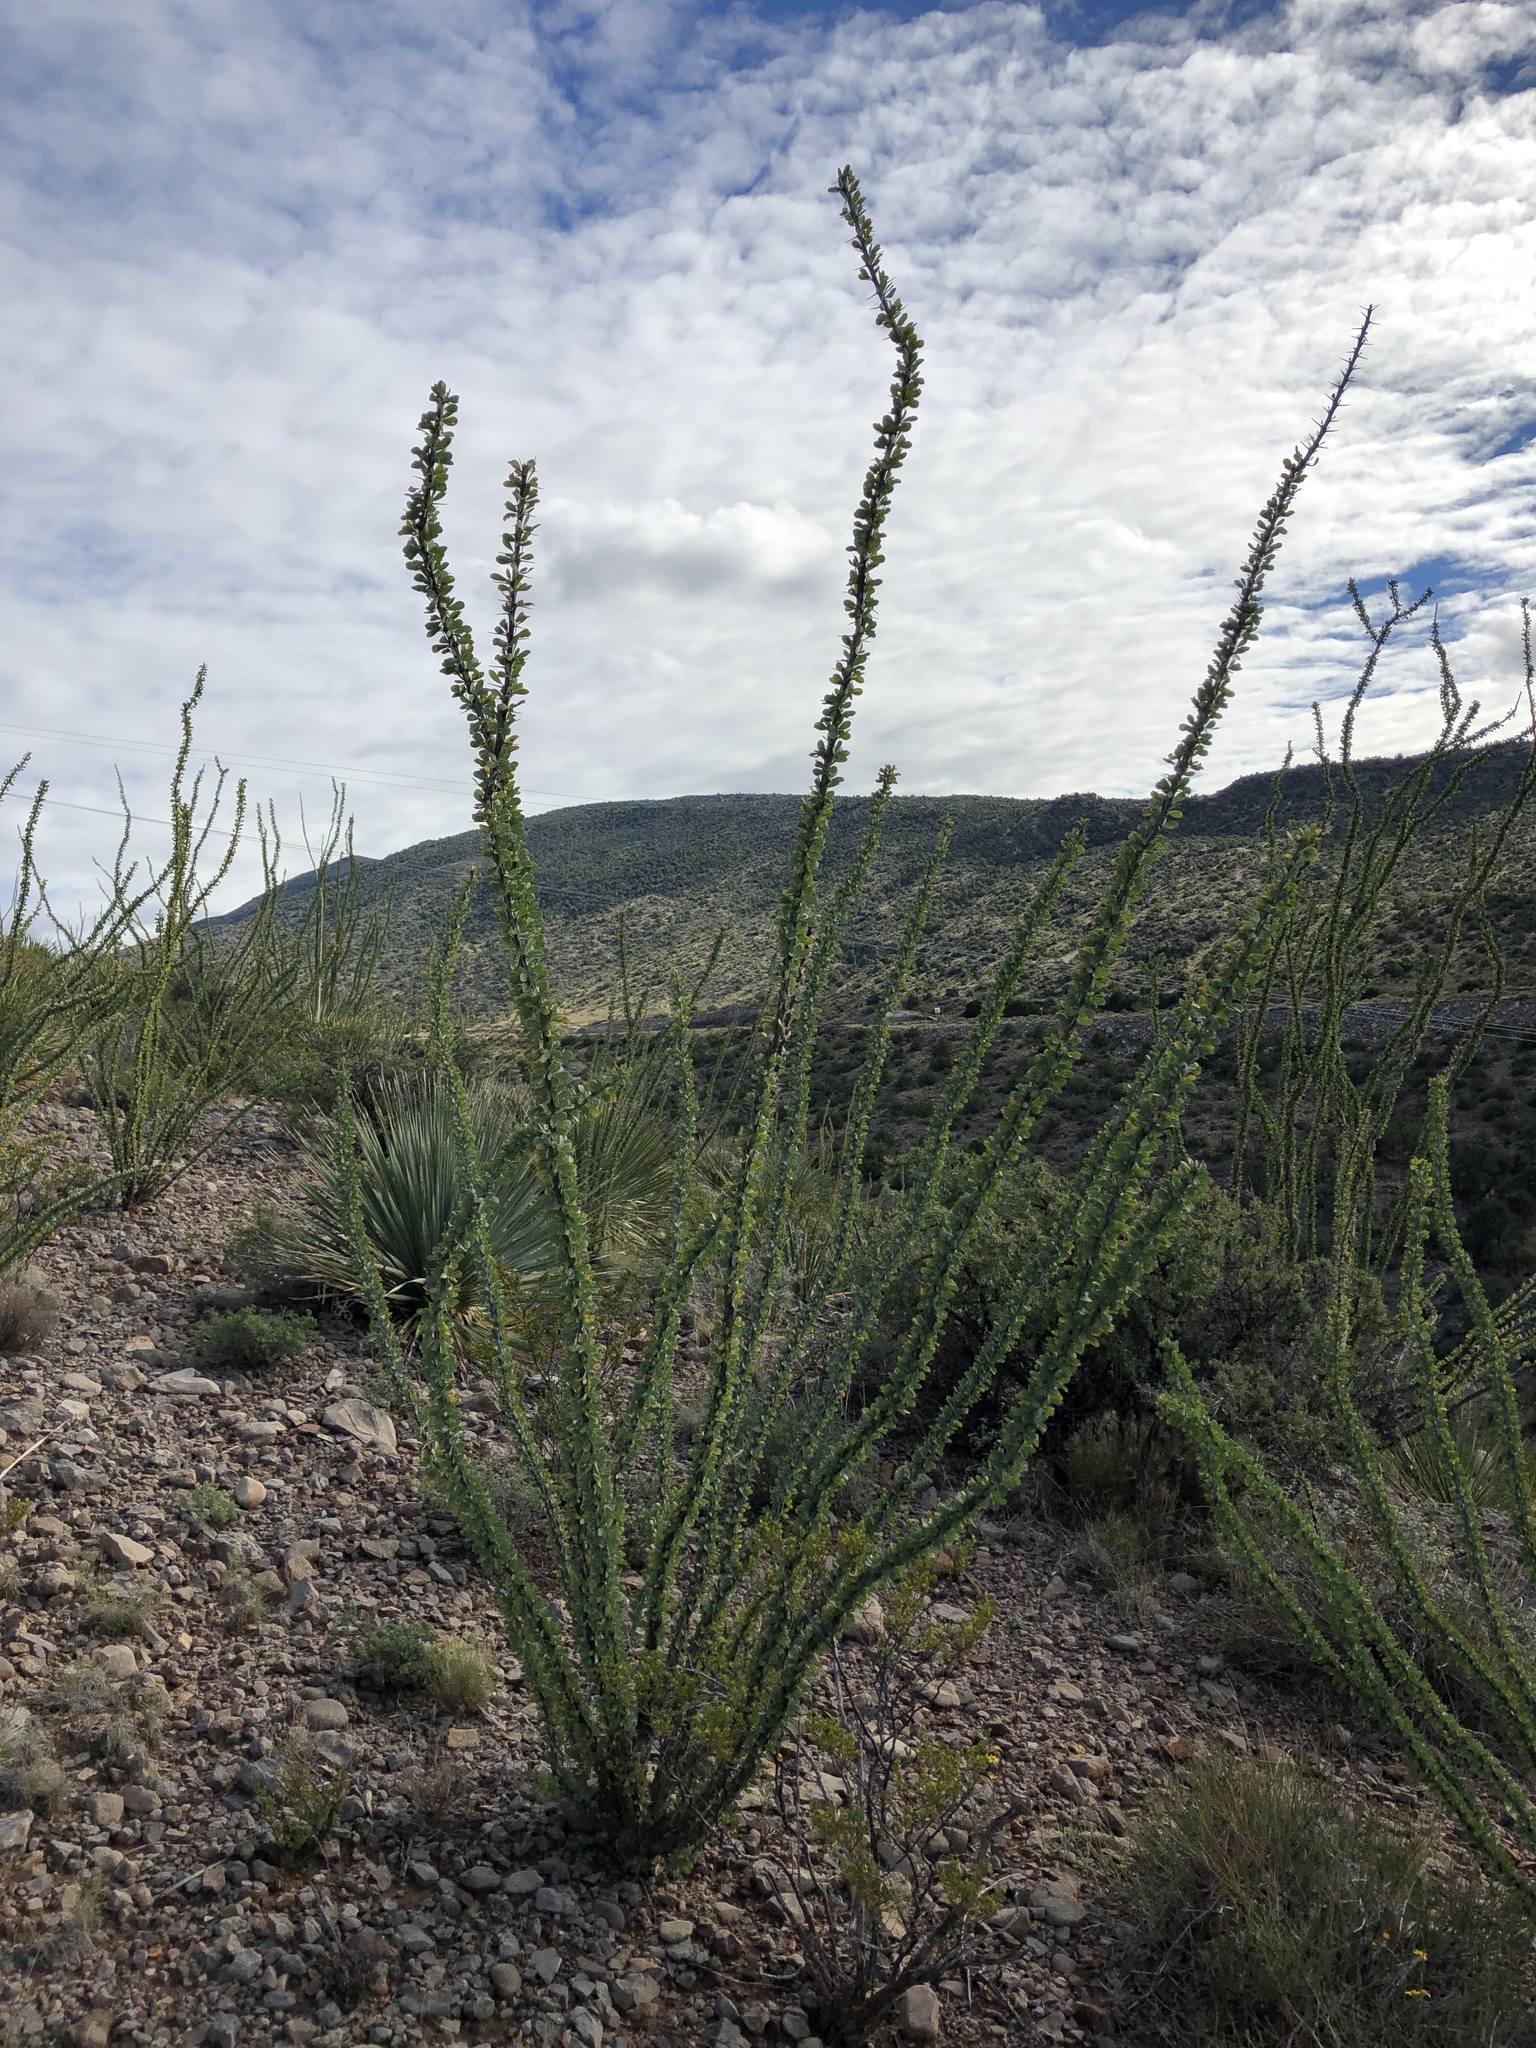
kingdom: Plantae
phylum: Tracheophyta
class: Magnoliopsida
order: Ericales
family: Fouquieriaceae
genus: Fouquieria
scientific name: Fouquieria splendens
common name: Vine-cactus
